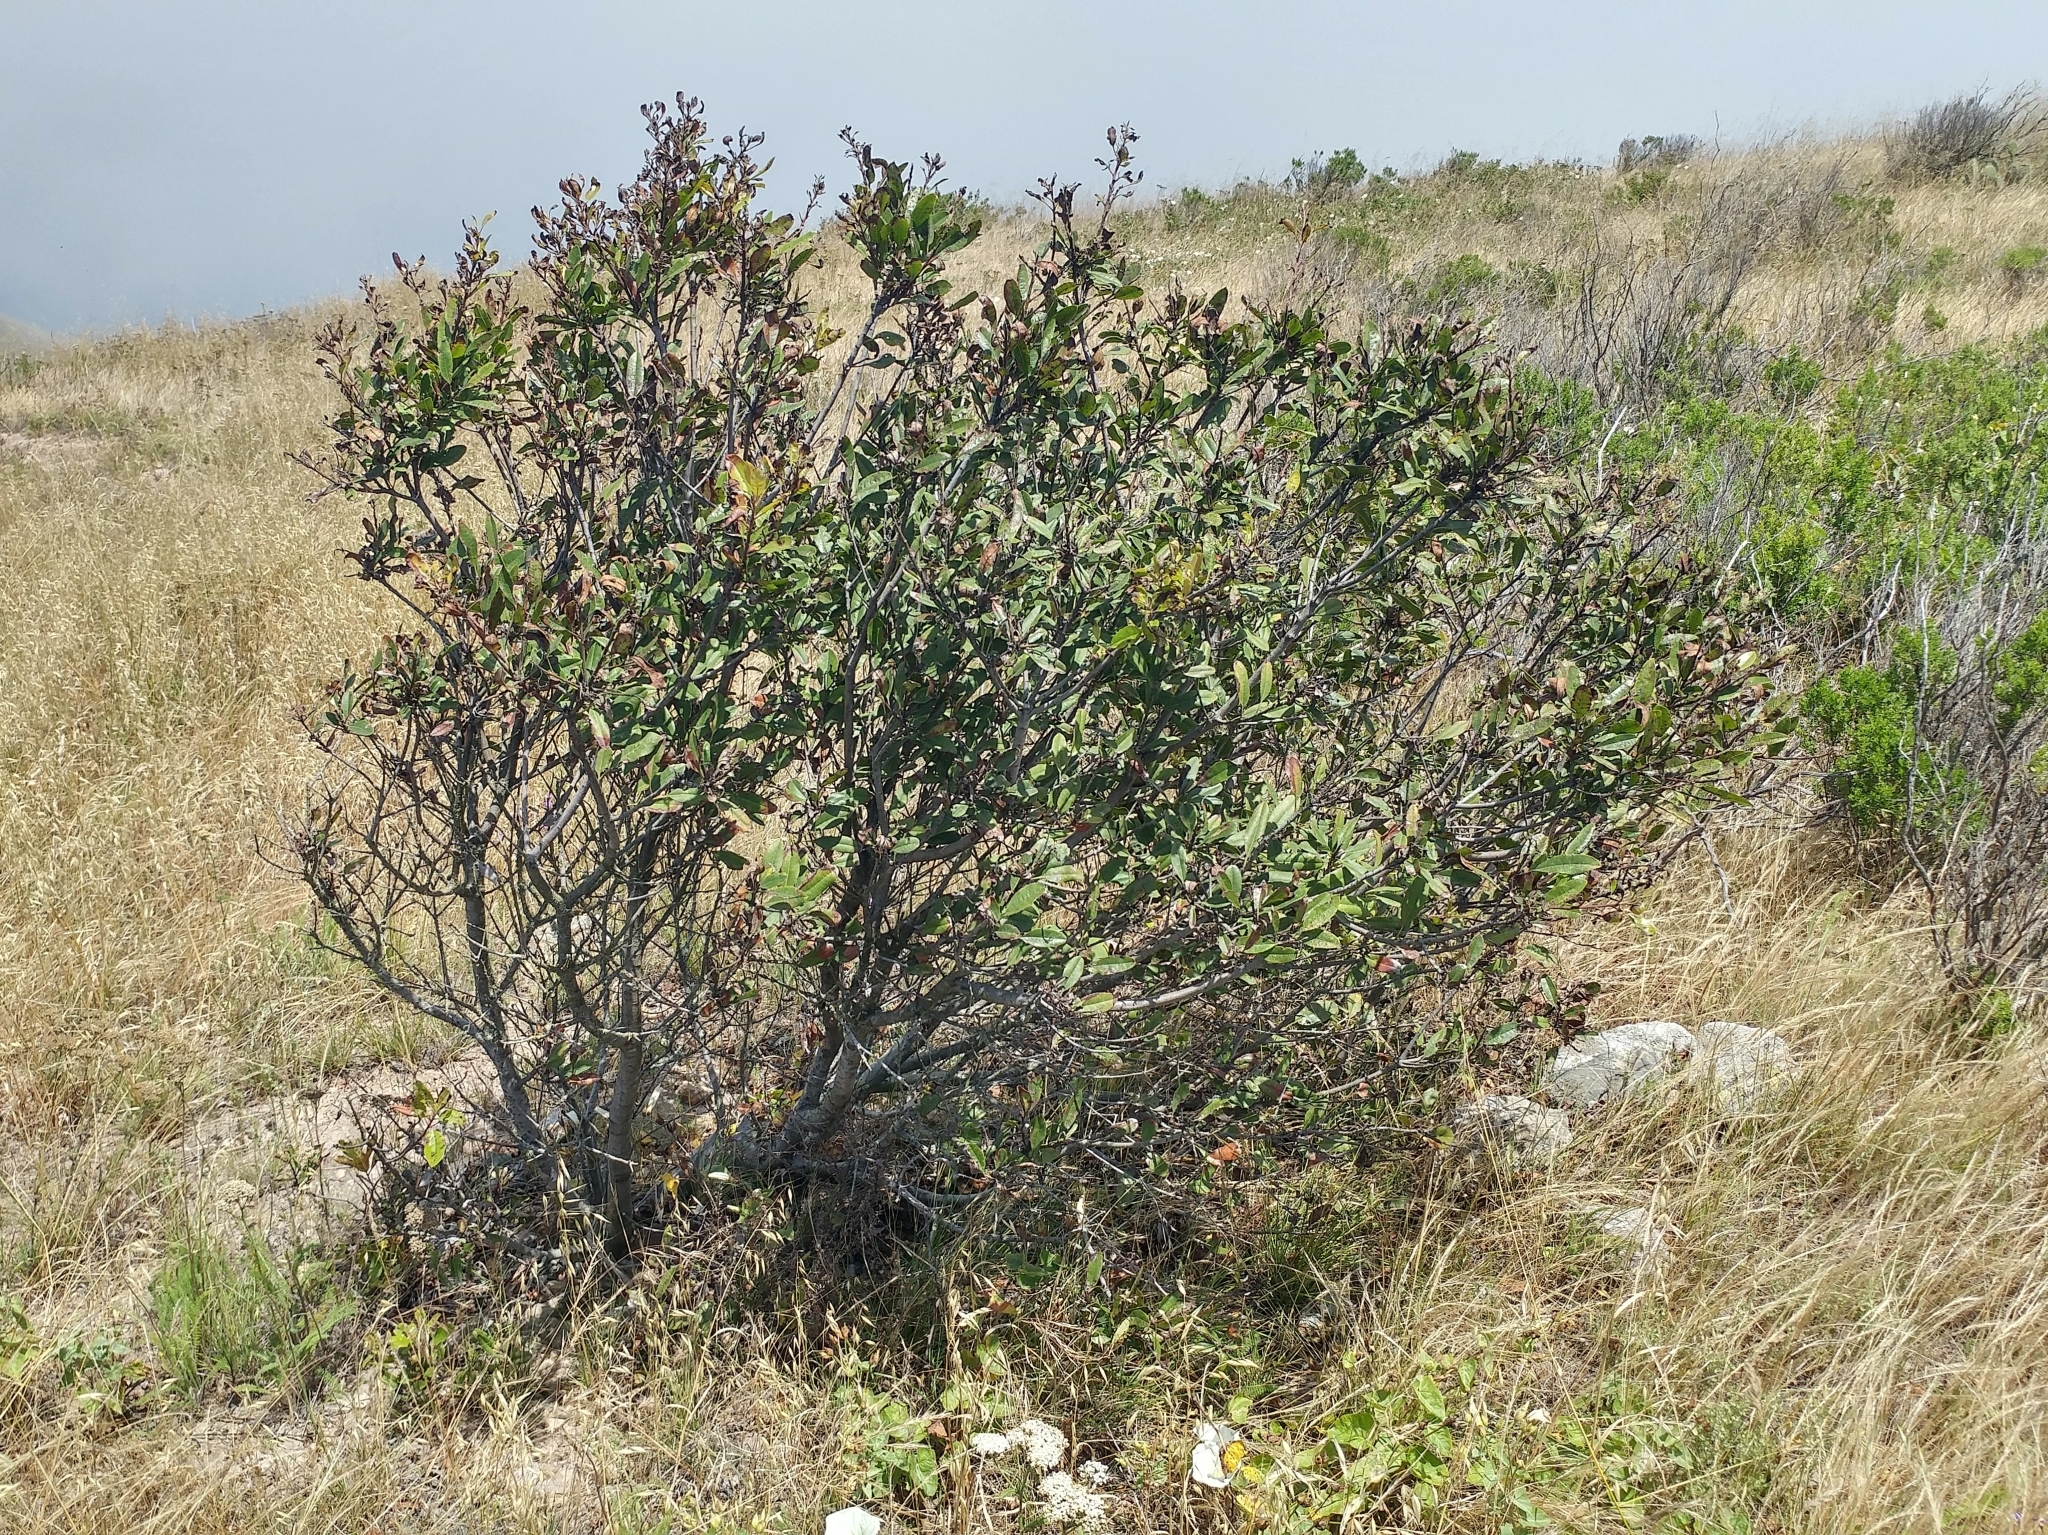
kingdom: Plantae
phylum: Tracheophyta
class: Magnoliopsida
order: Rosales
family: Rosaceae
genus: Heteromeles
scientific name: Heteromeles arbutifolia
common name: California-holly
